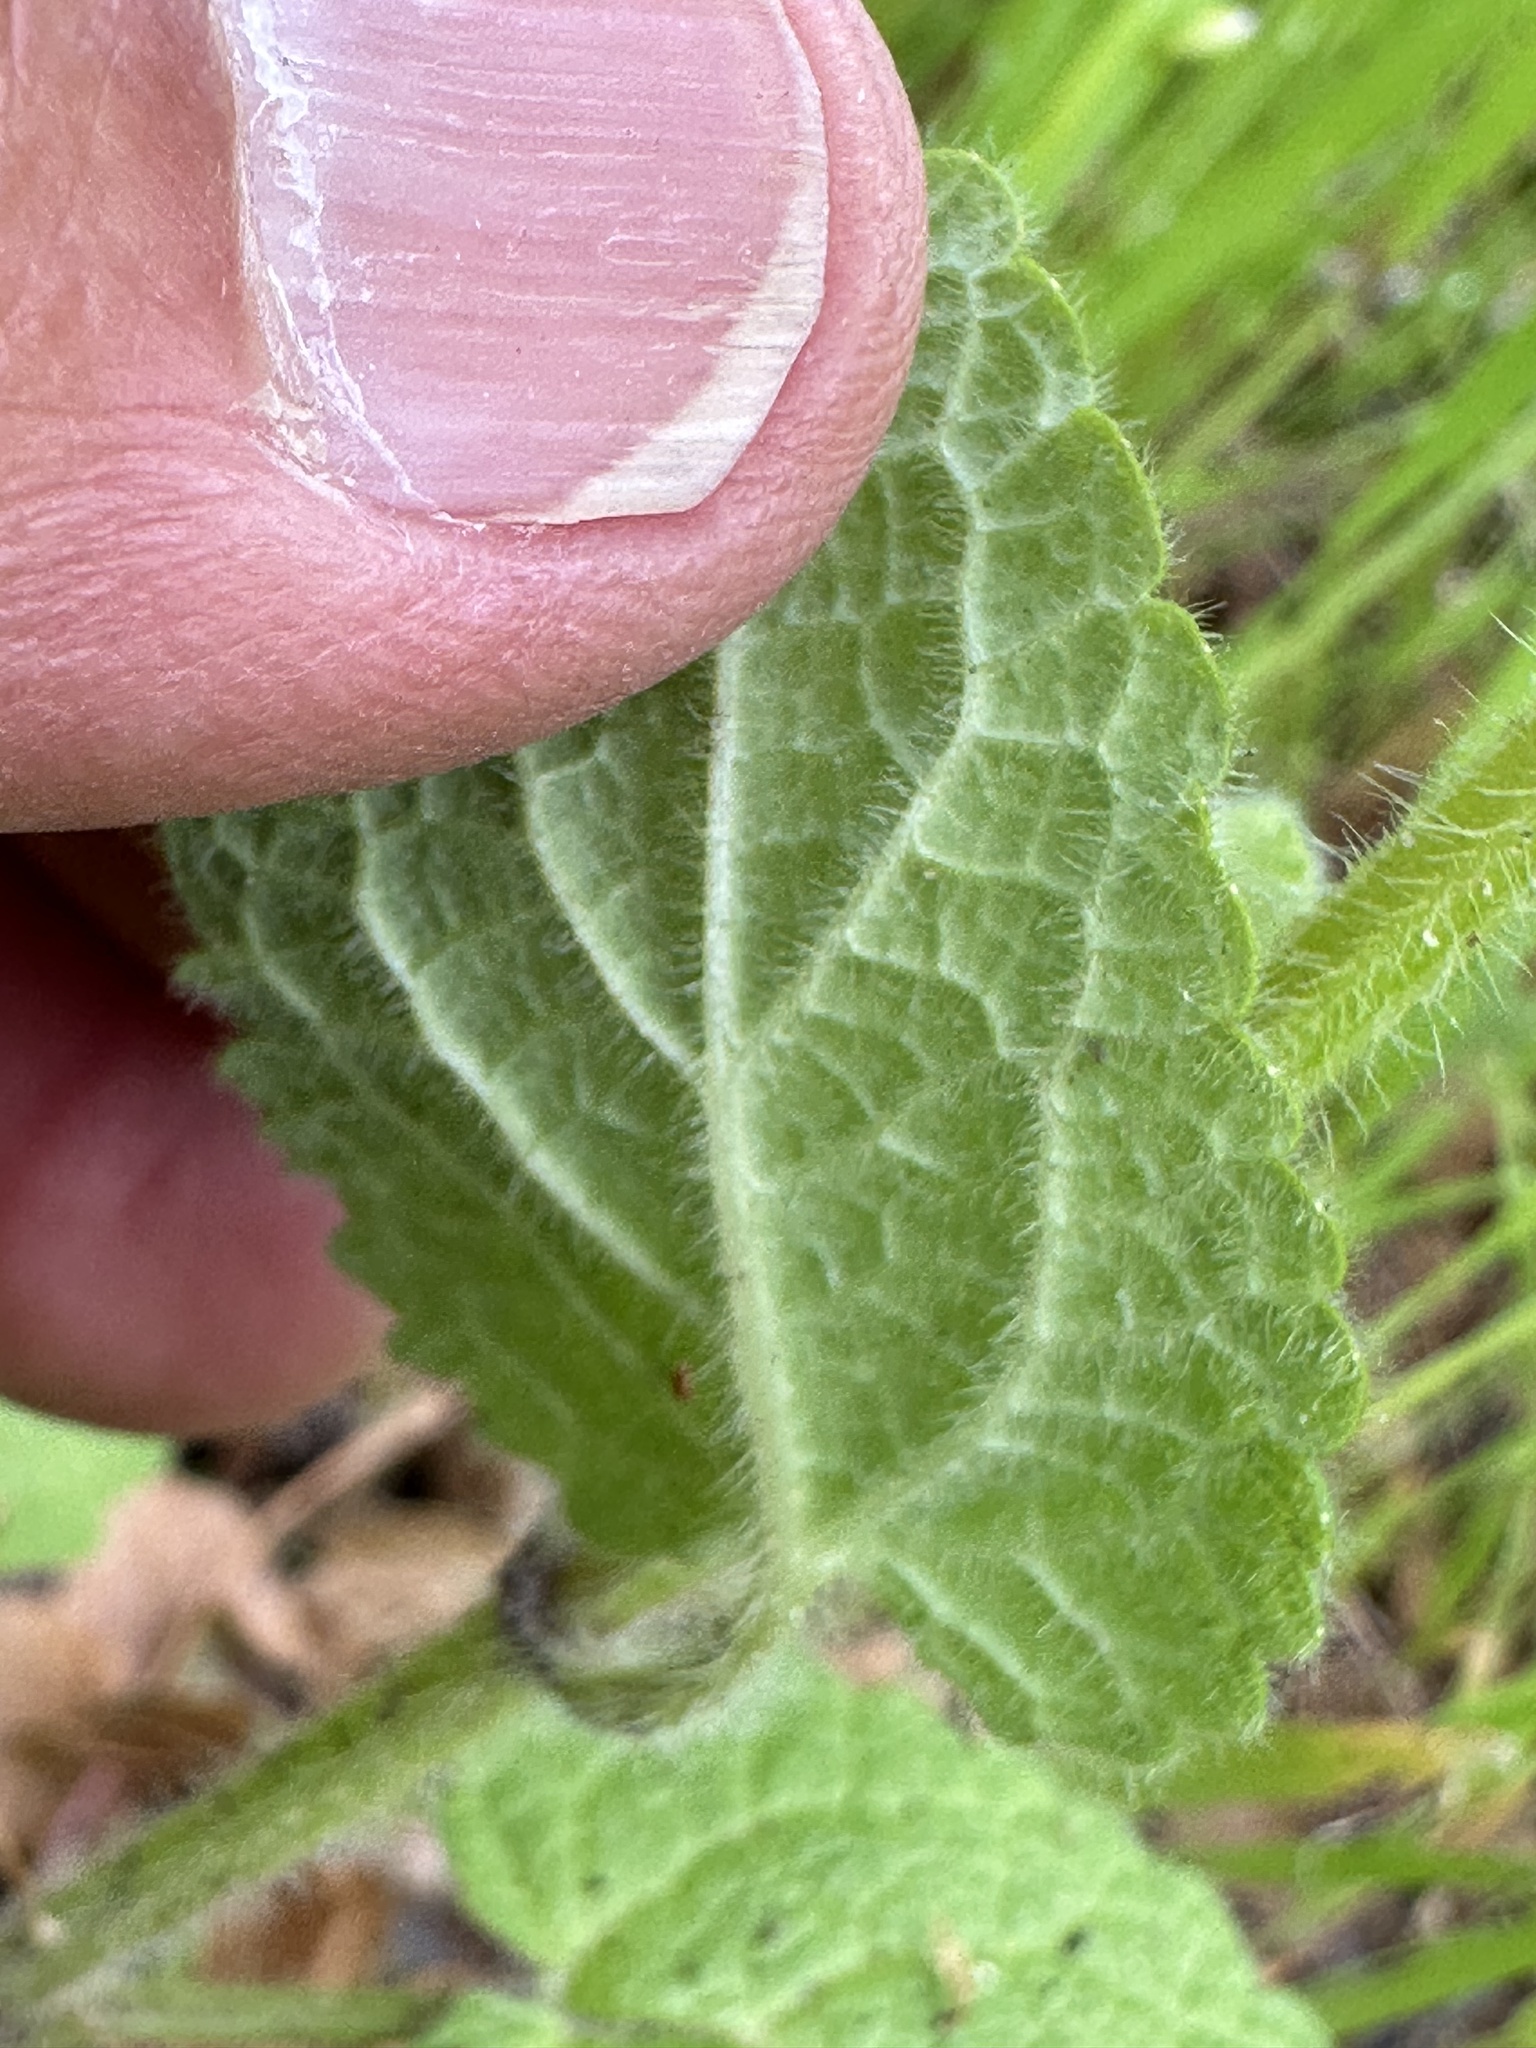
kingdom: Plantae
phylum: Tracheophyta
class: Magnoliopsida
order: Lamiales
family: Lamiaceae
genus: Stachys
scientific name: Stachys bullata
